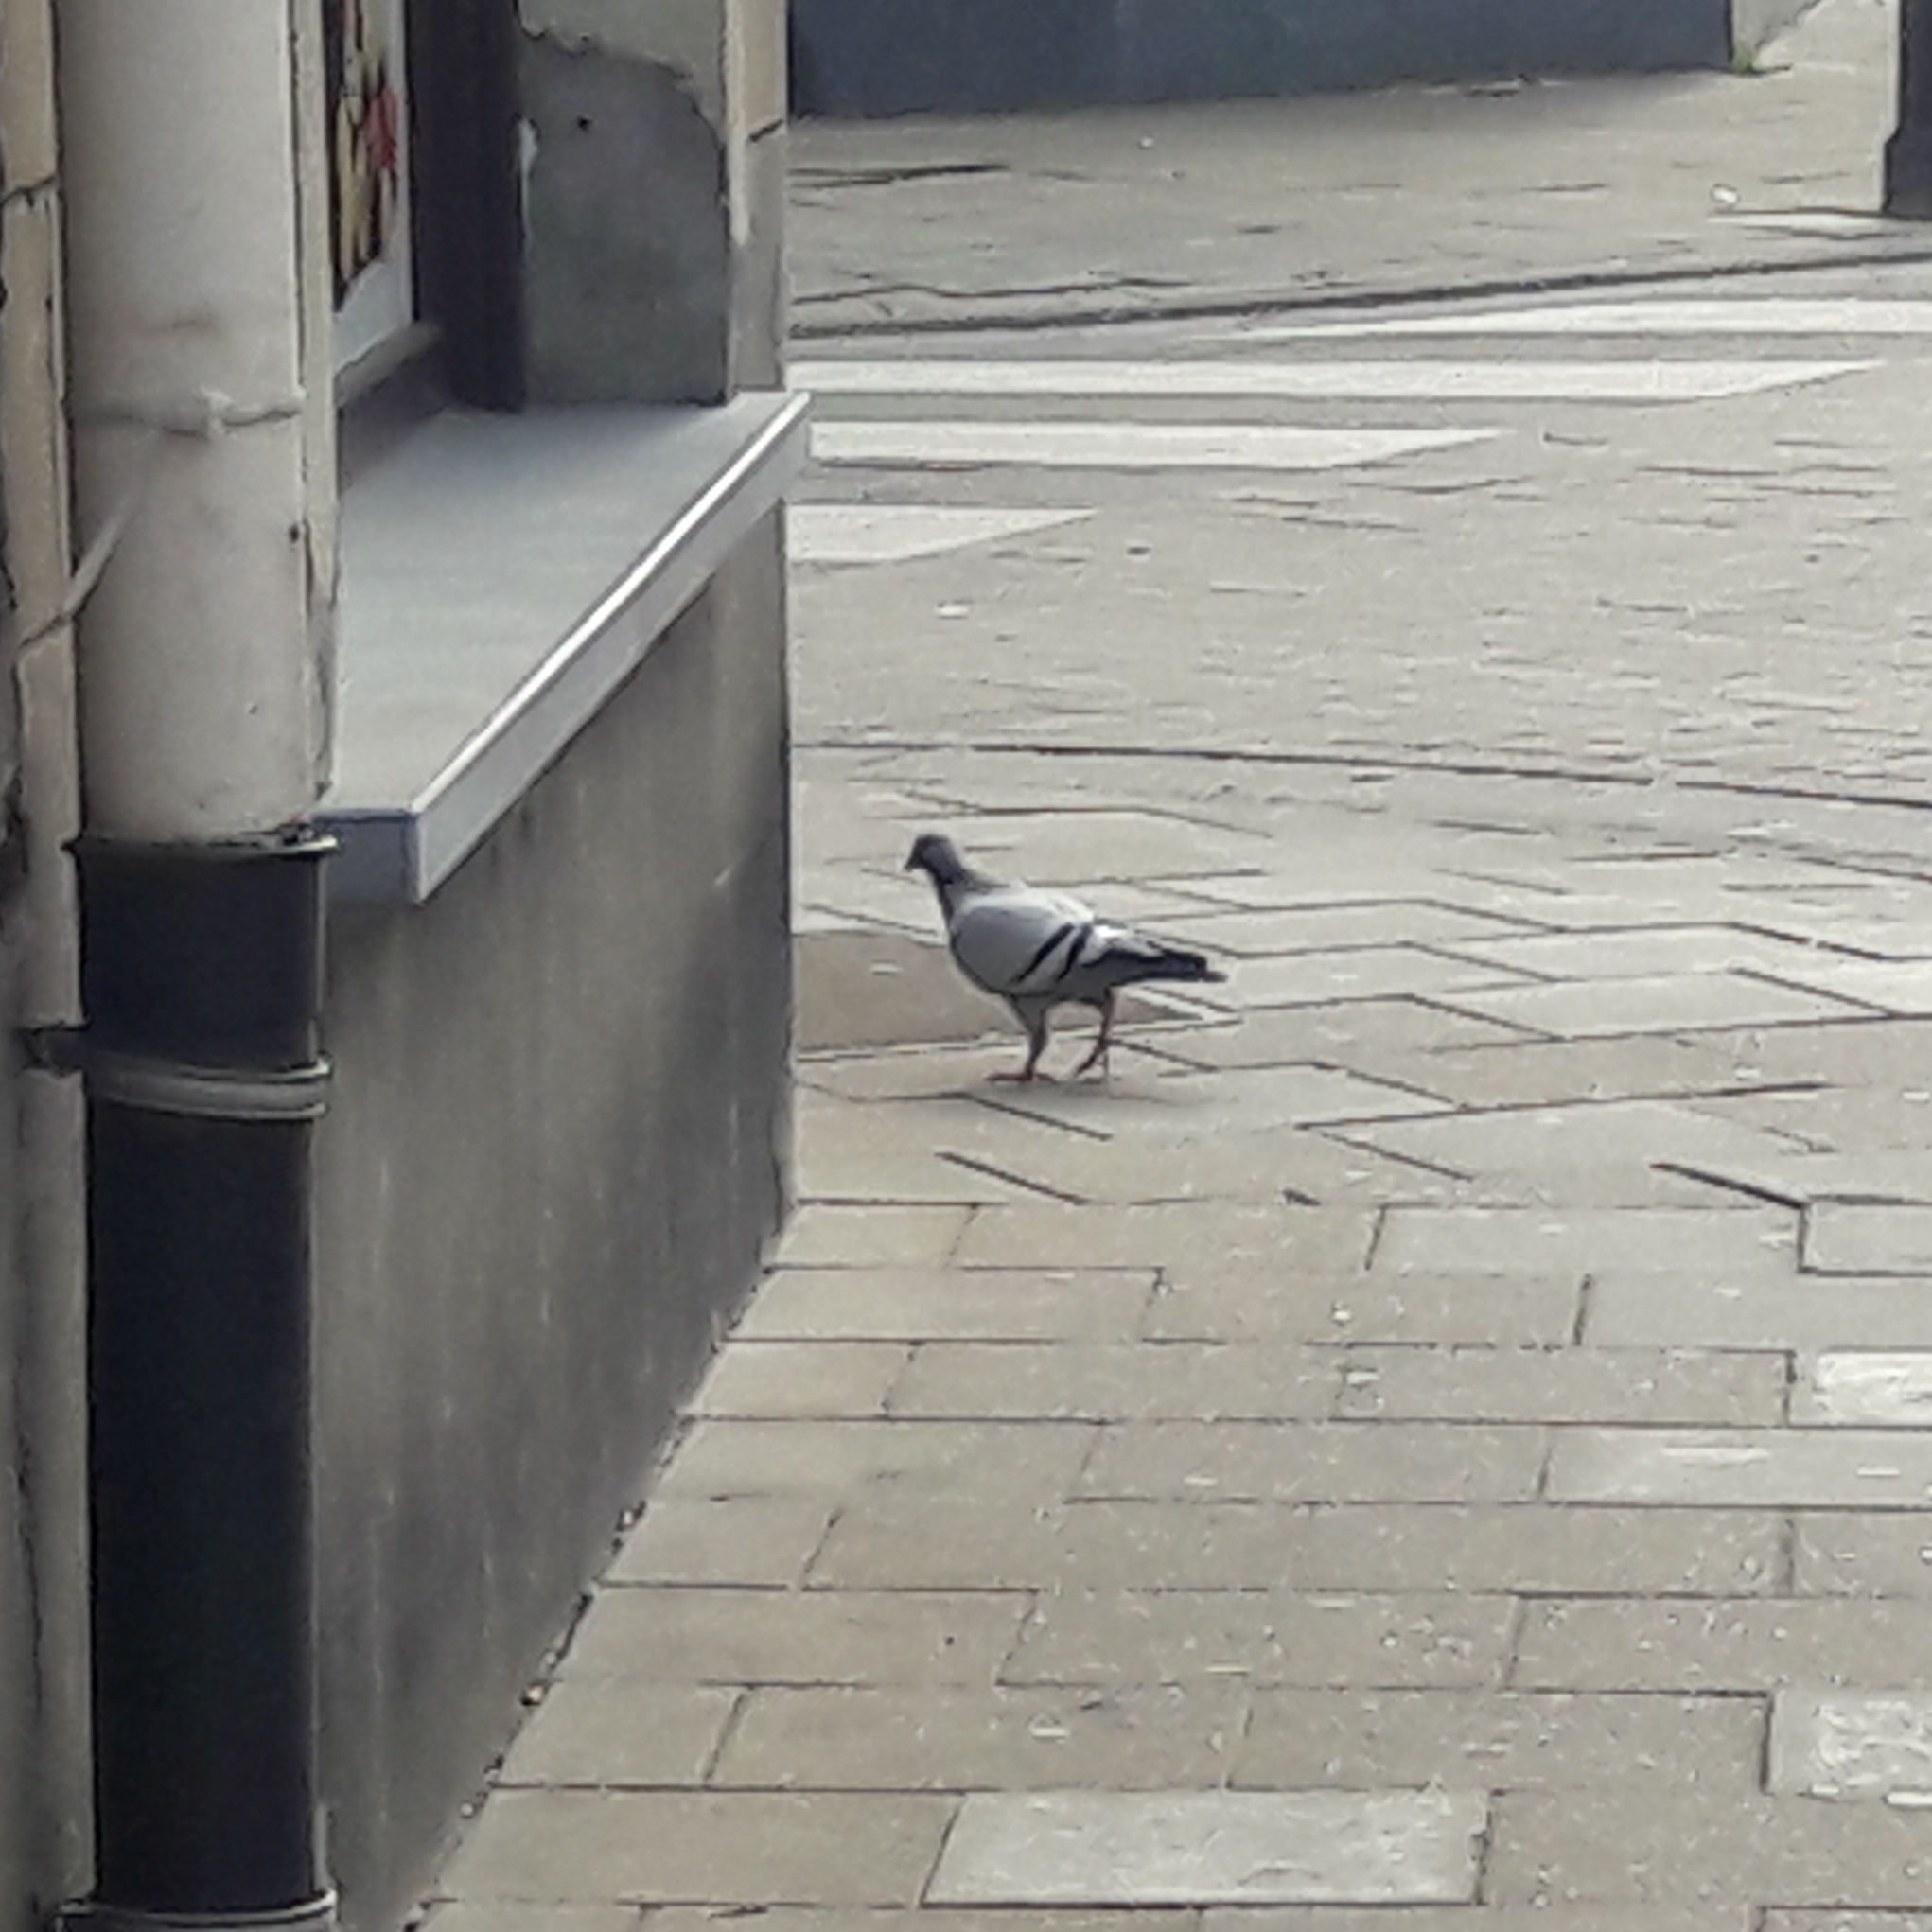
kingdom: Animalia
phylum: Chordata
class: Aves
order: Columbiformes
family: Columbidae
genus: Columba
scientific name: Columba livia
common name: Rock pigeon
